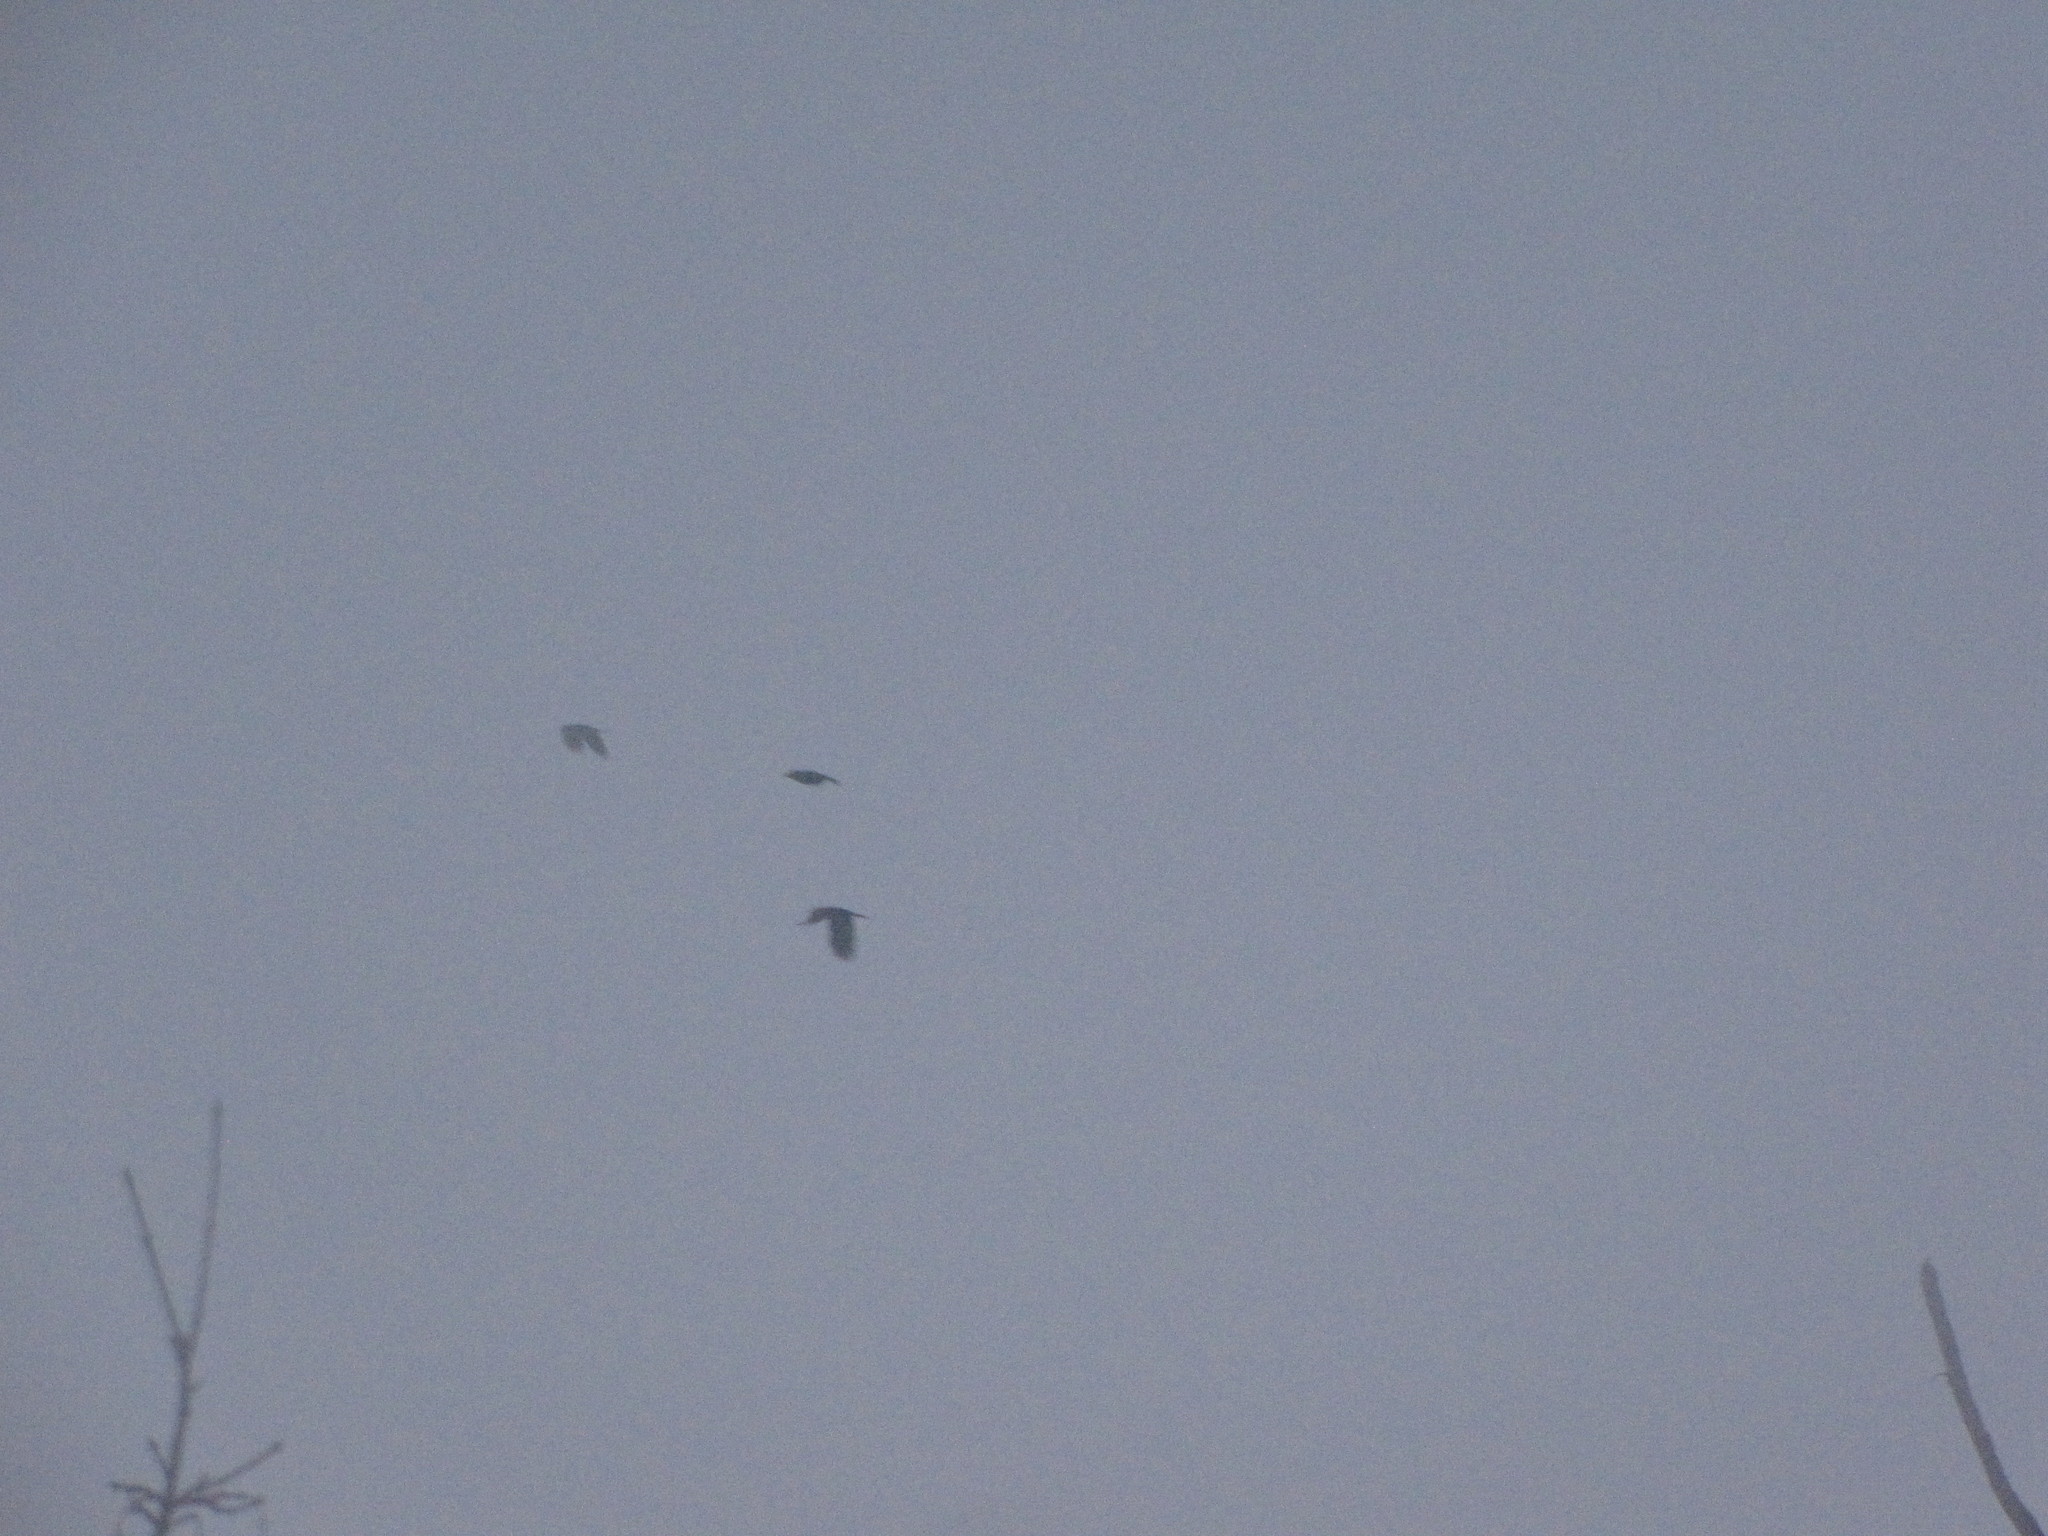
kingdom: Animalia
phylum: Chordata
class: Aves
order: Passeriformes
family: Corvidae
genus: Corvus
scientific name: Corvus brachyrhynchos
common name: American crow
